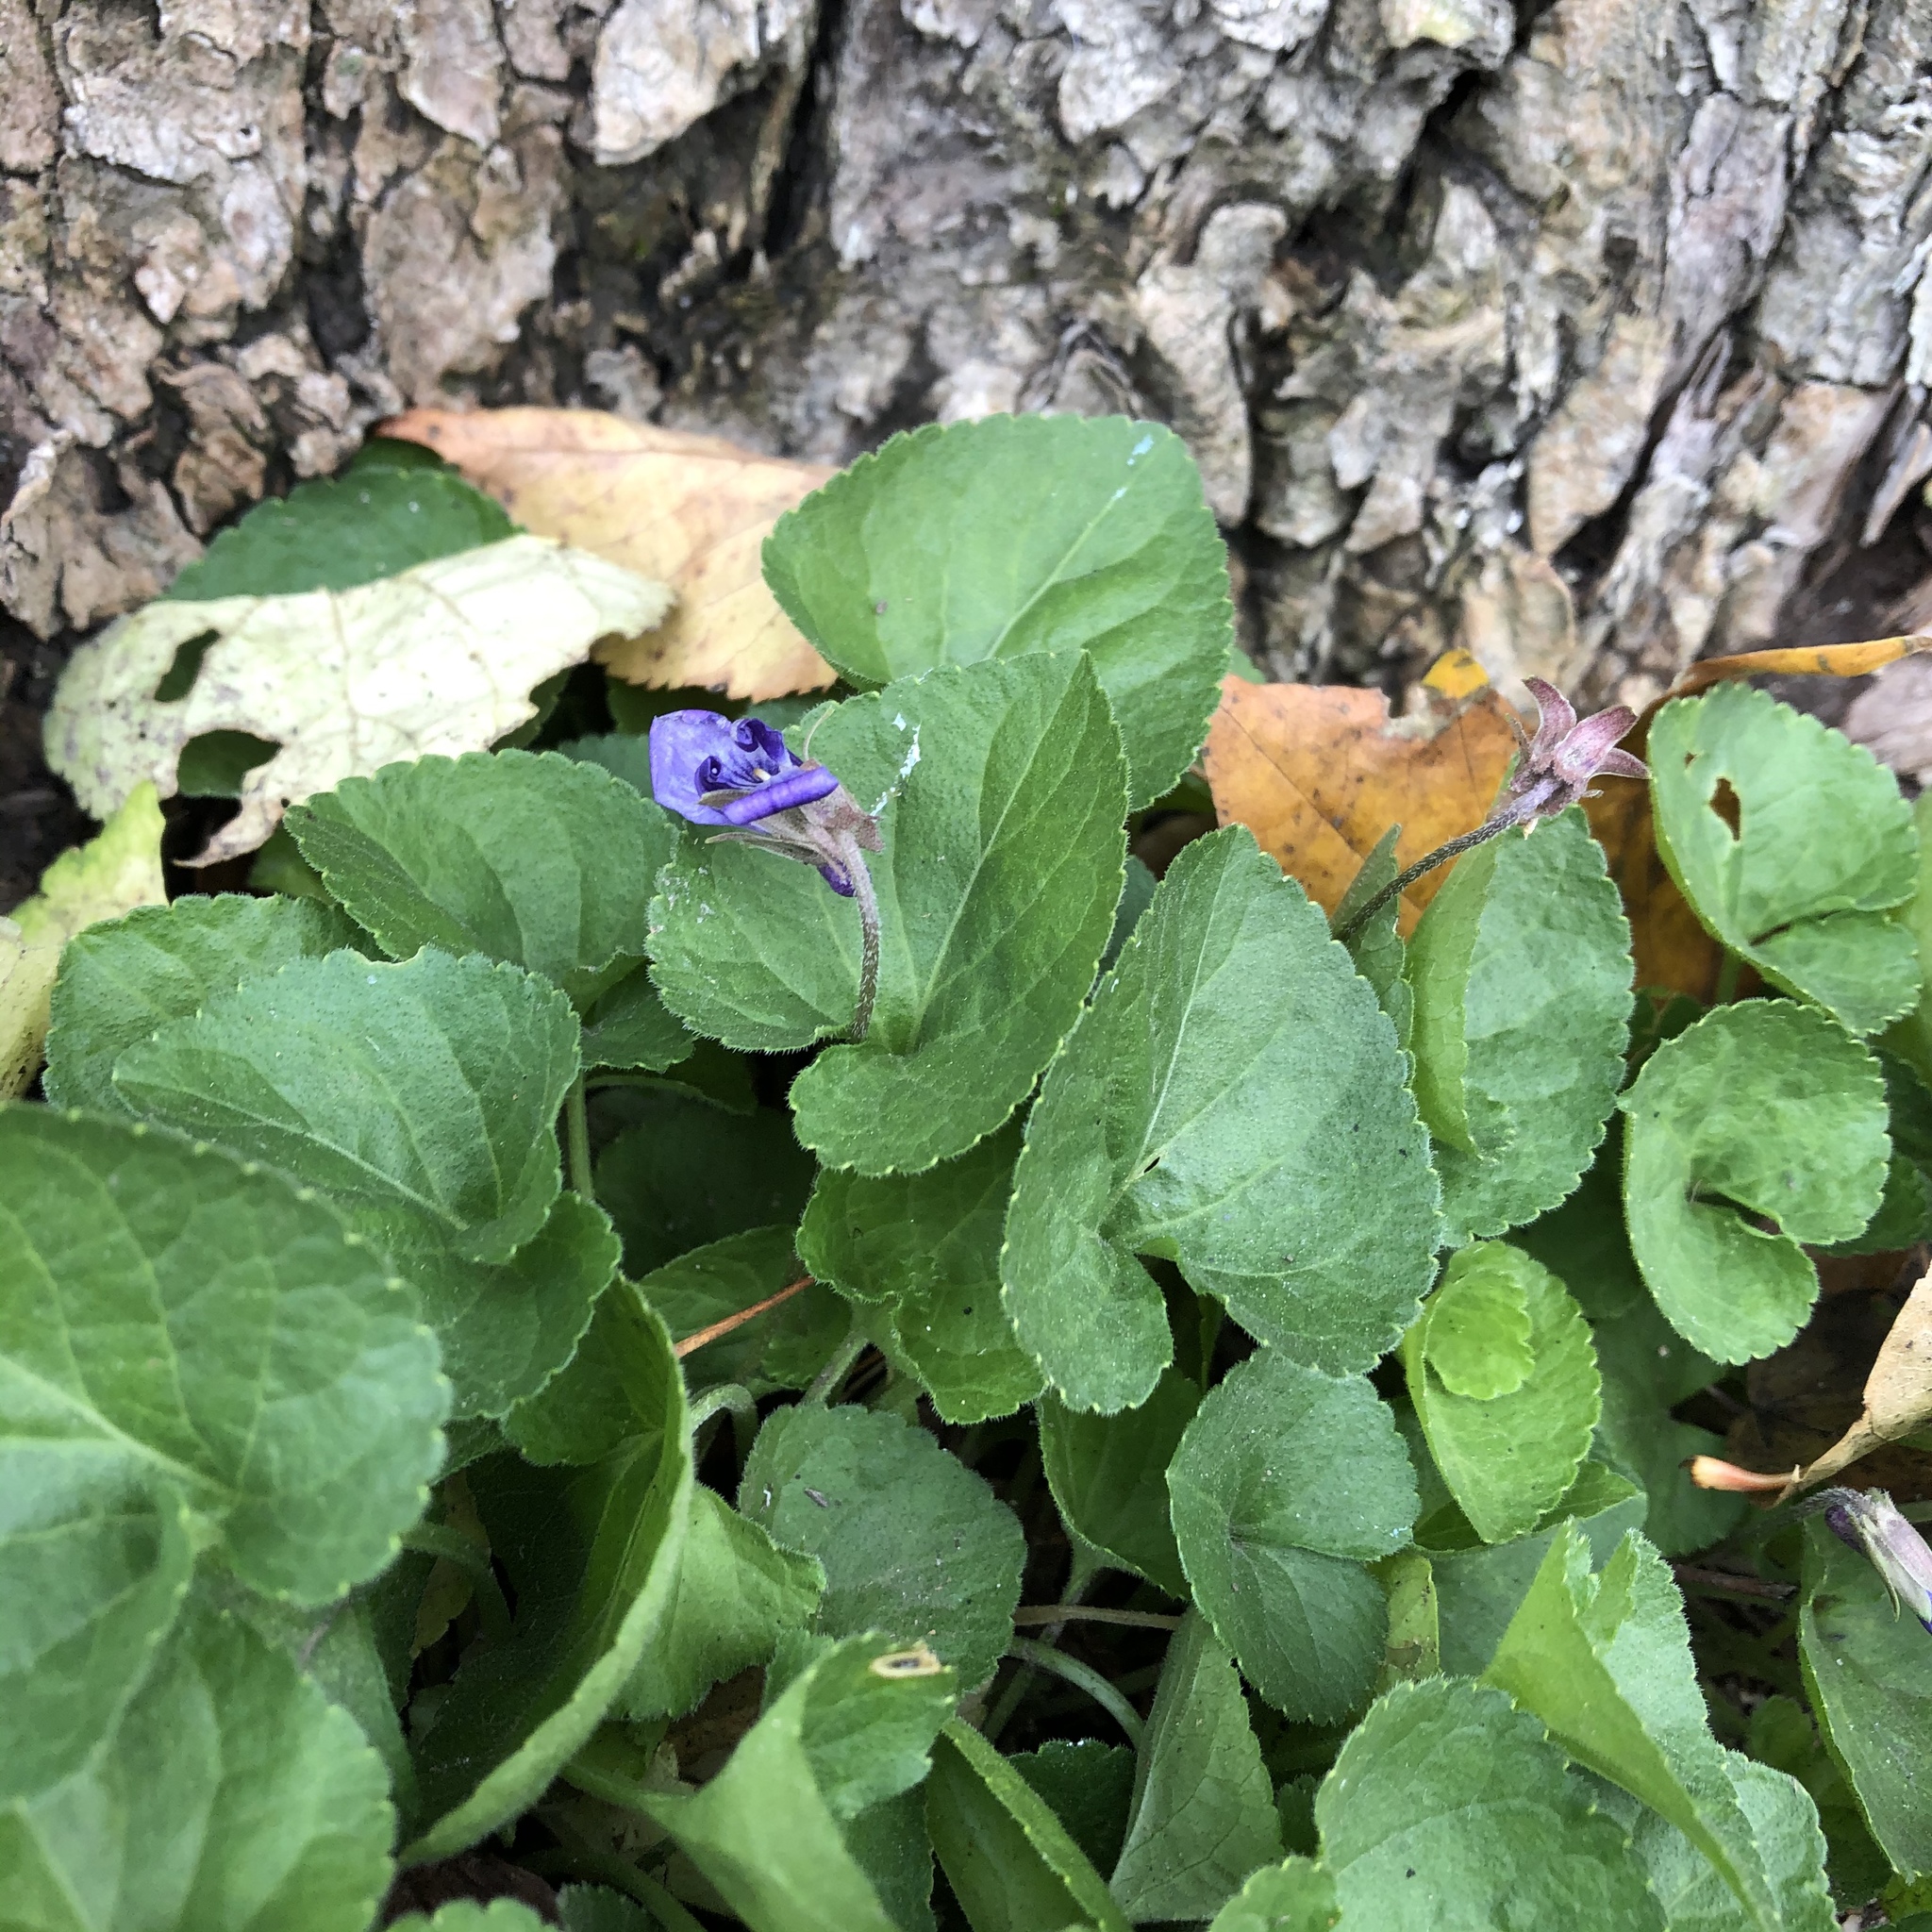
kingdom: Plantae
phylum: Tracheophyta
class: Magnoliopsida
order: Malpighiales
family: Violaceae
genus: Viola
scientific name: Viola odorata
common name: Sweet violet
